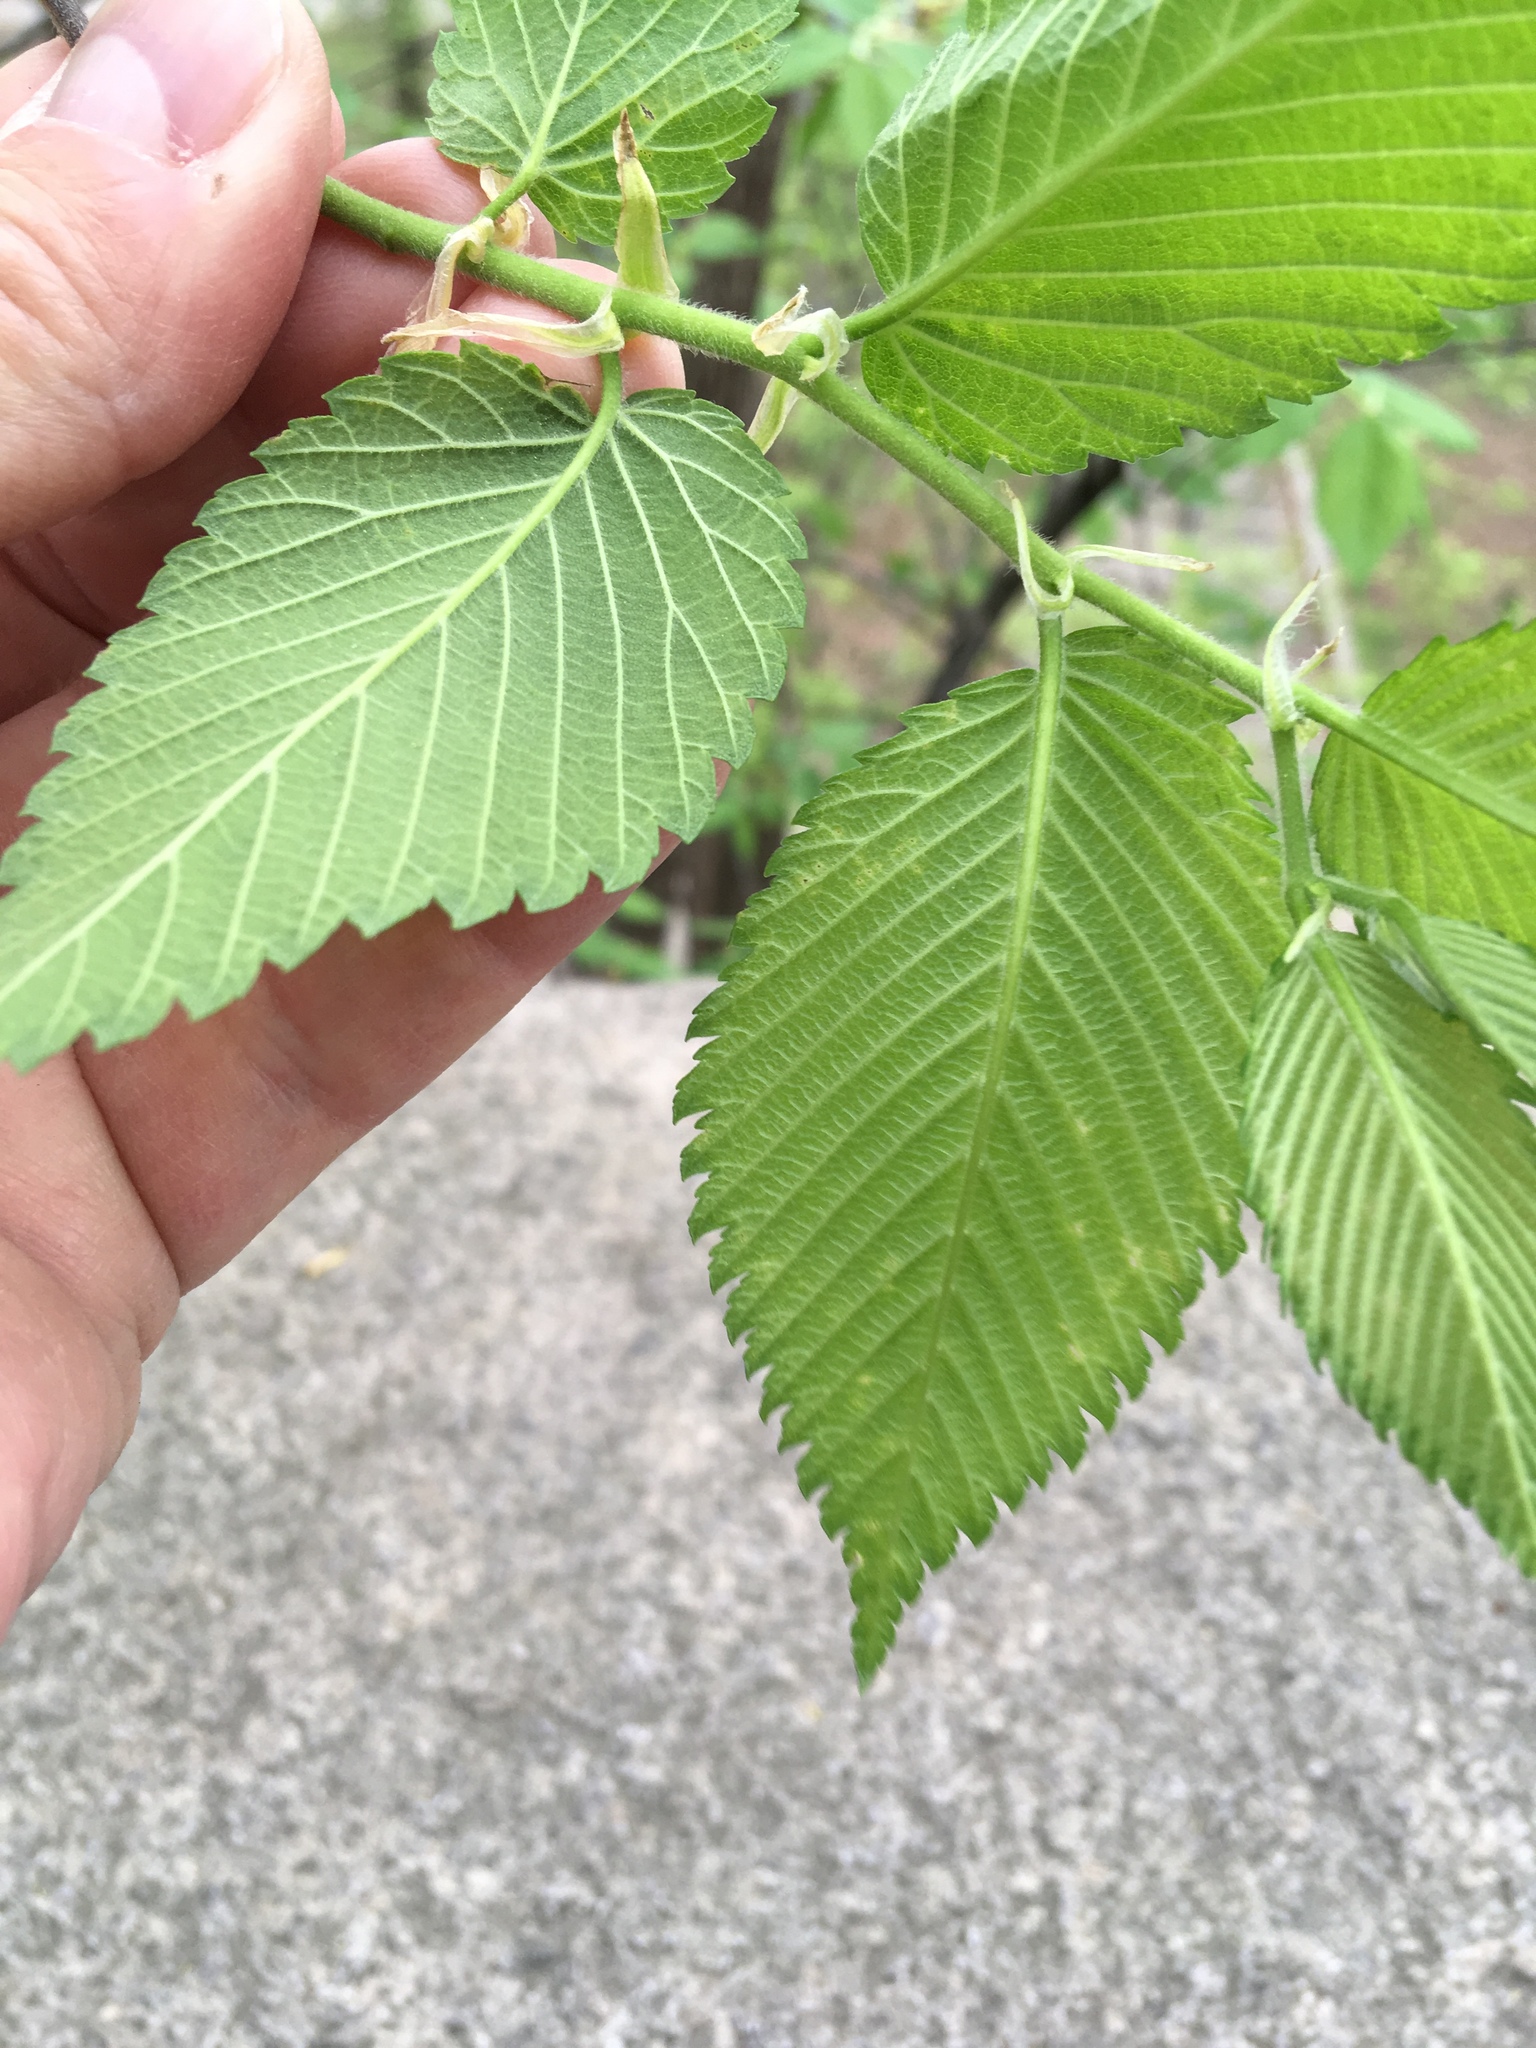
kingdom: Plantae
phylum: Tracheophyta
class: Magnoliopsida
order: Rosales
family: Ulmaceae
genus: Ulmus
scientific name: Ulmus americana
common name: American elm
